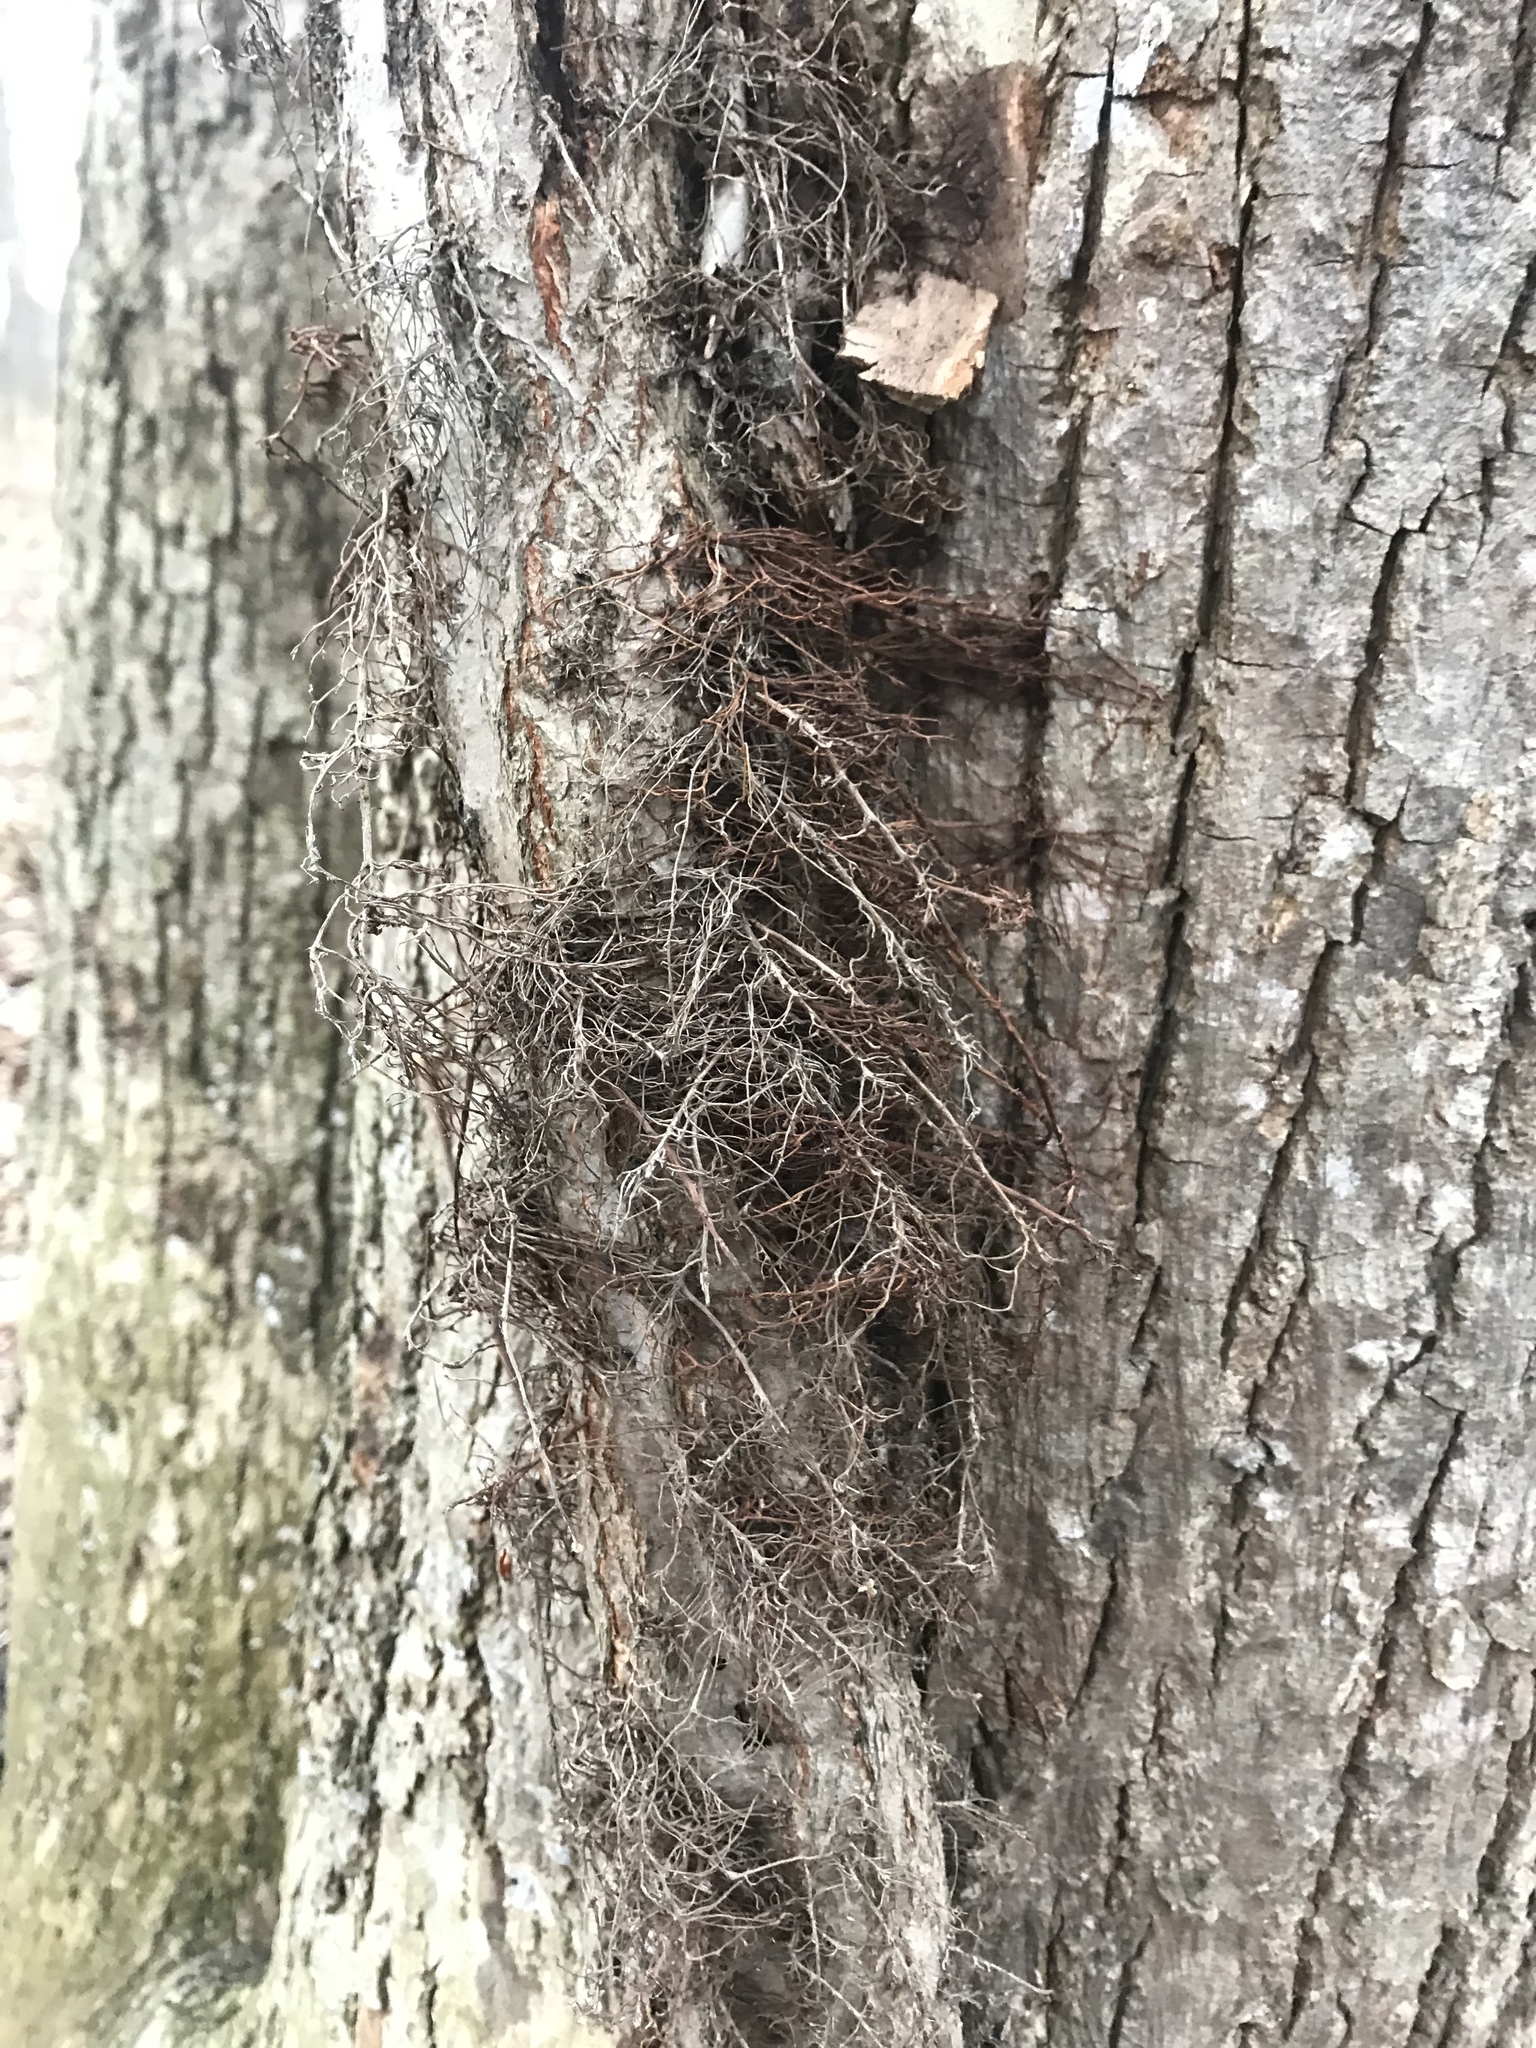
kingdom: Plantae
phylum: Tracheophyta
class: Magnoliopsida
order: Sapindales
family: Anacardiaceae
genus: Toxicodendron
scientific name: Toxicodendron radicans
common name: Poison ivy
